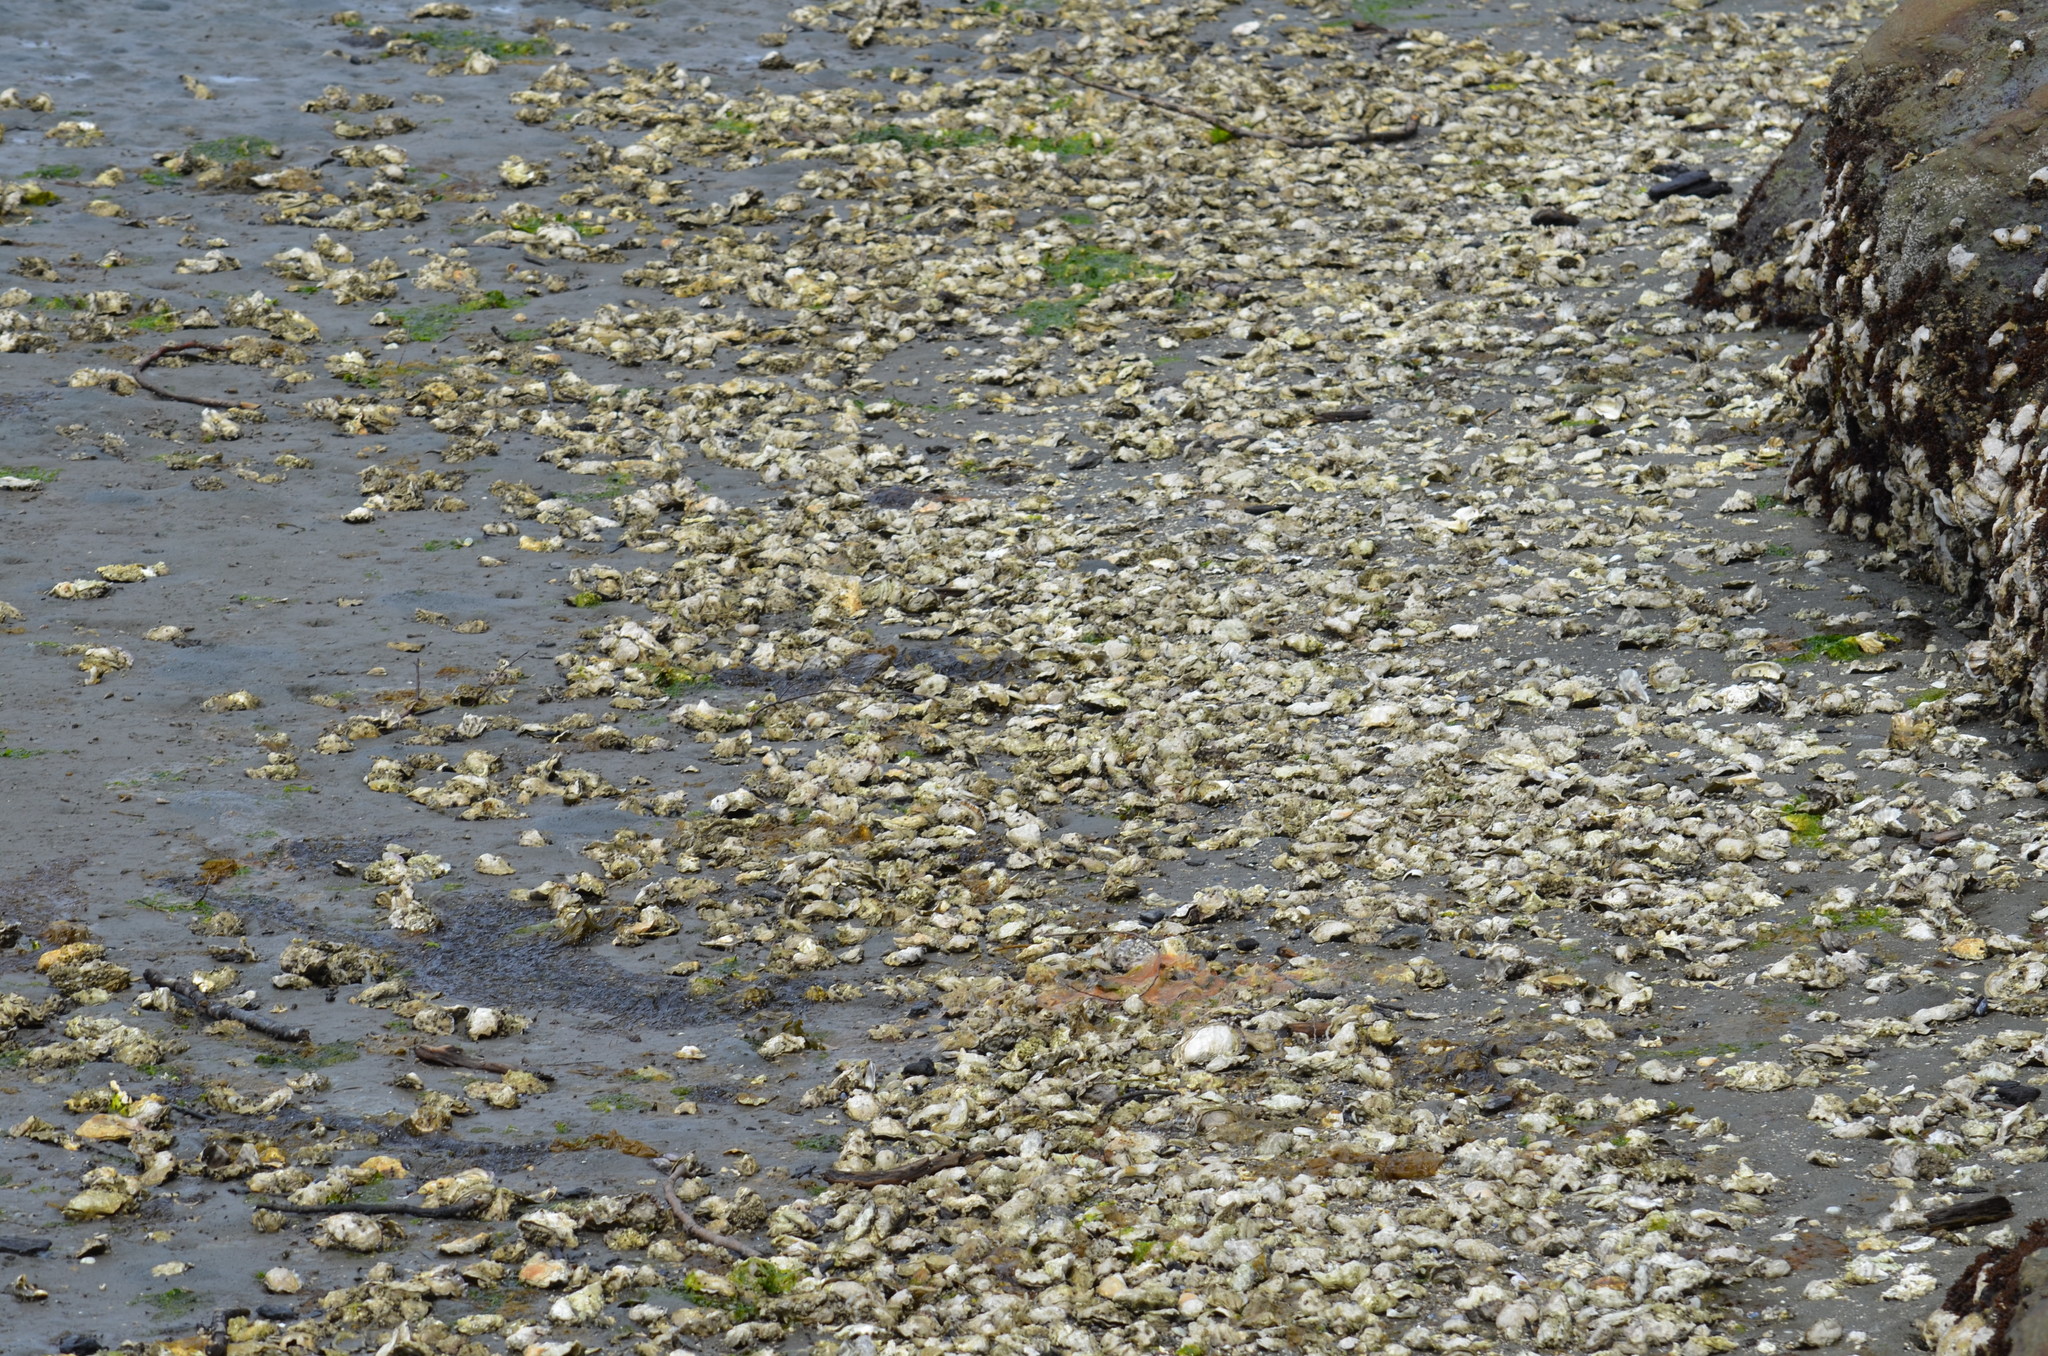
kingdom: Animalia
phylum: Mollusca
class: Bivalvia
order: Ostreida
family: Ostreidae
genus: Magallana
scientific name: Magallana gigas
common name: Pacific oyster
